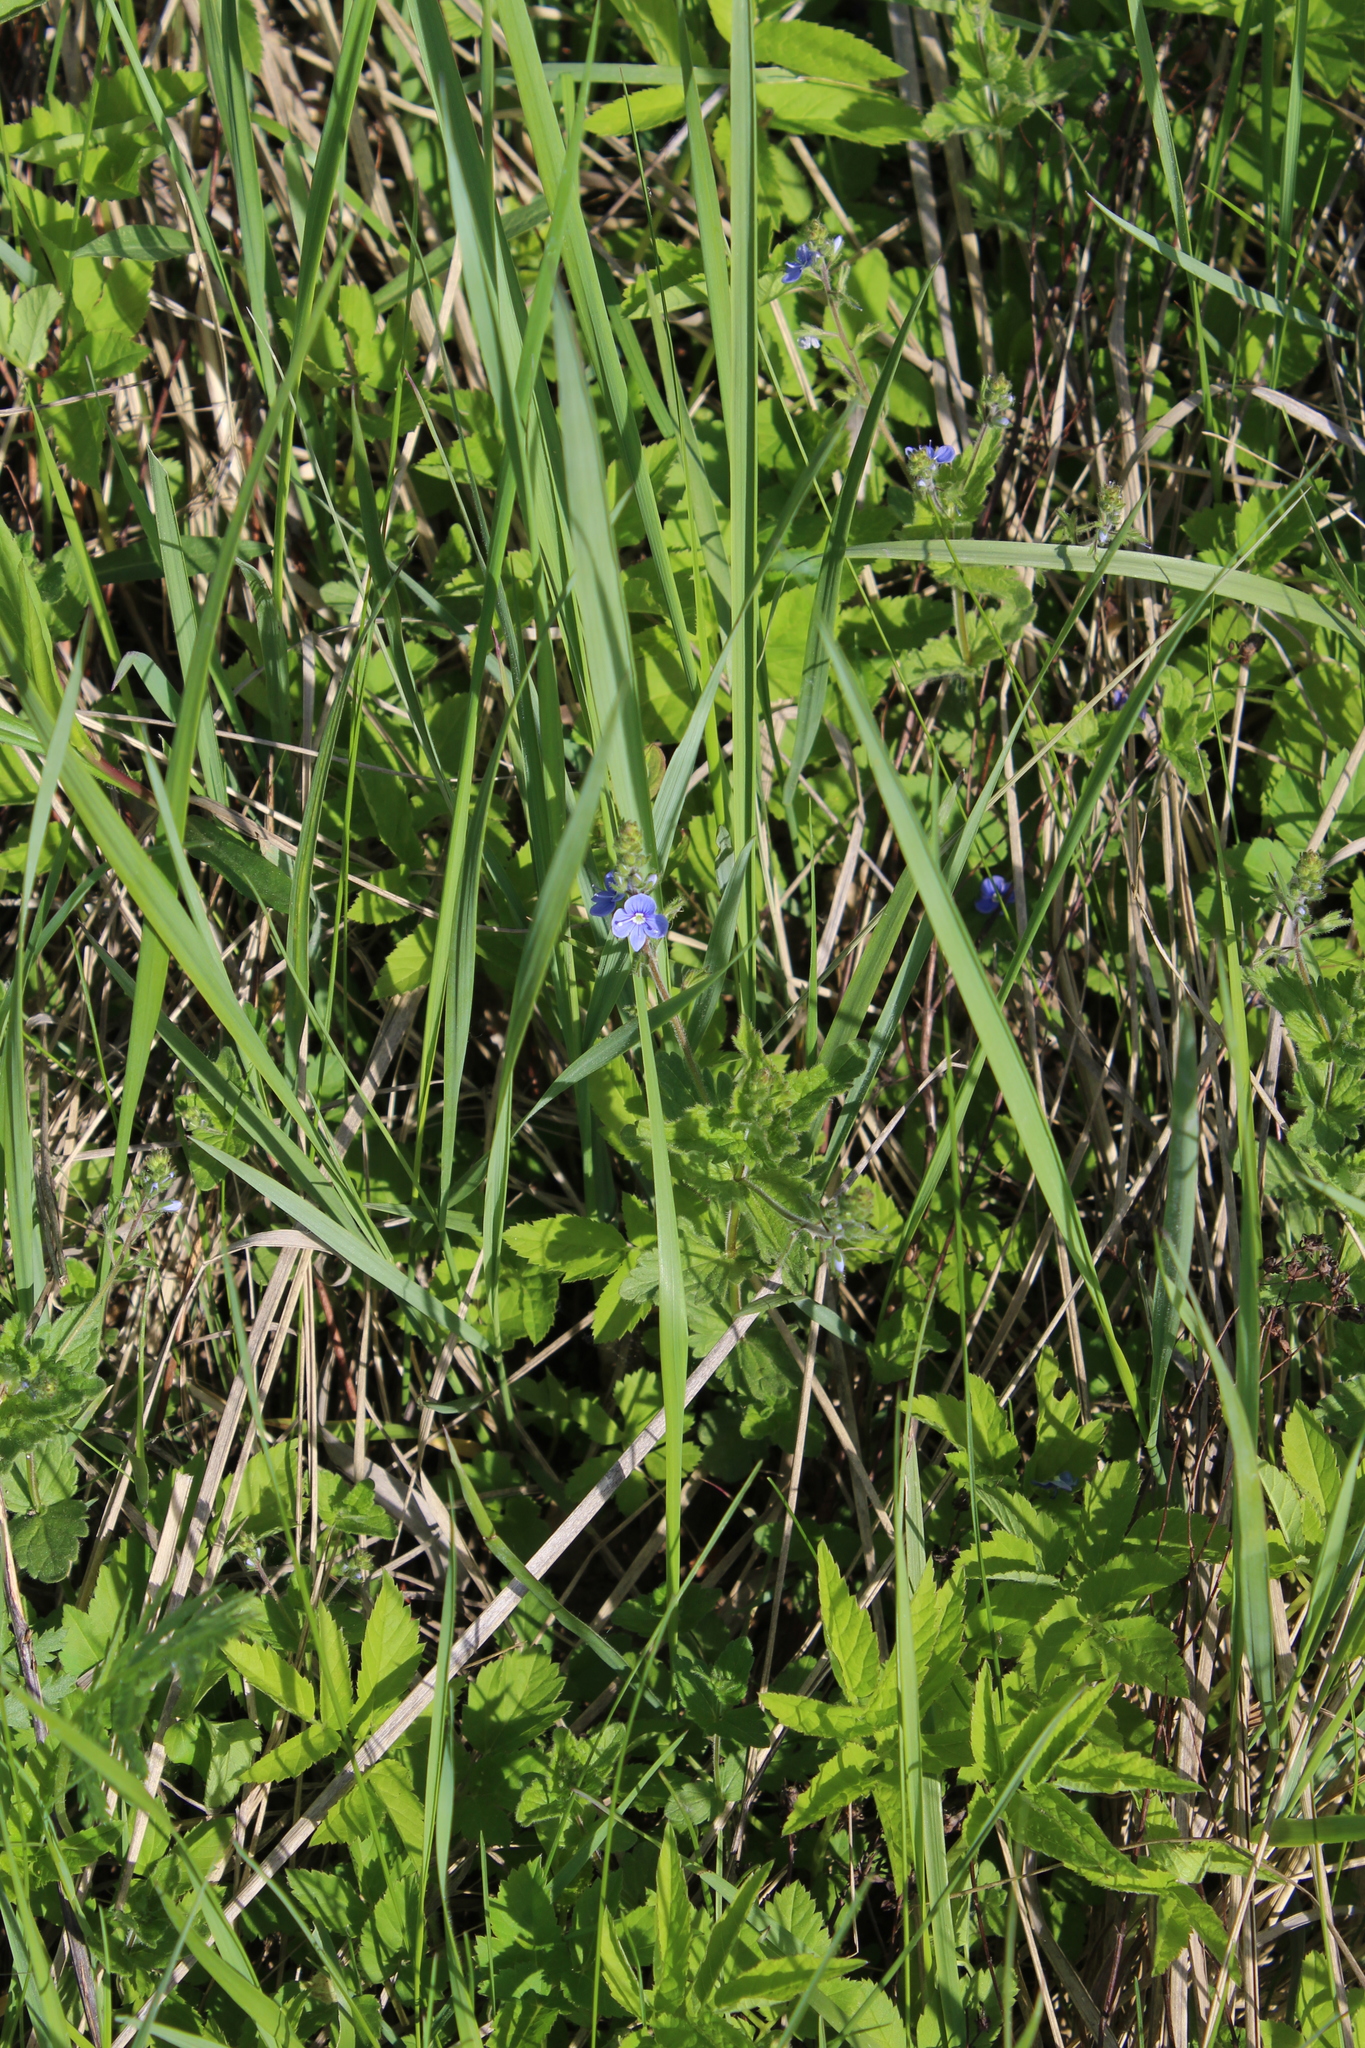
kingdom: Plantae
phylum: Tracheophyta
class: Magnoliopsida
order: Lamiales
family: Plantaginaceae
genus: Veronica
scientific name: Veronica chamaedrys
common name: Germander speedwell
